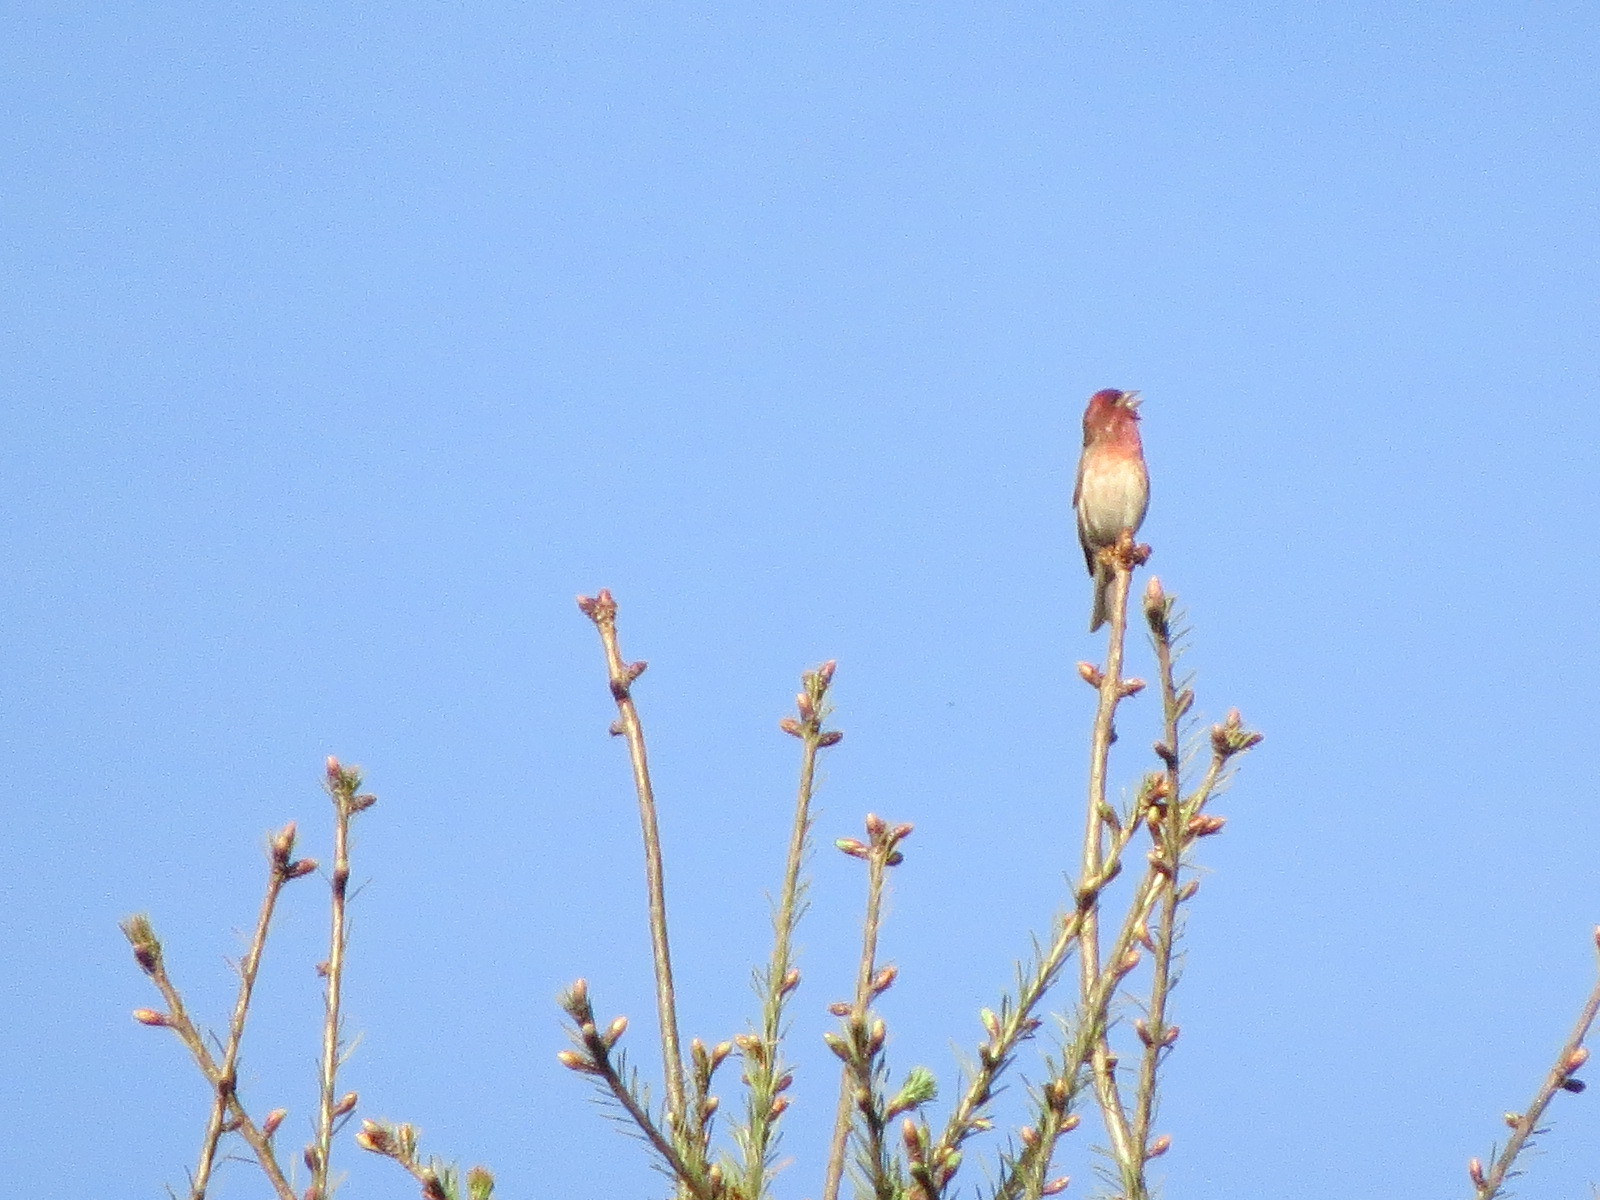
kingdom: Animalia
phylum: Chordata
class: Aves
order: Passeriformes
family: Fringillidae
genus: Haemorhous
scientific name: Haemorhous purpureus
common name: Purple finch
